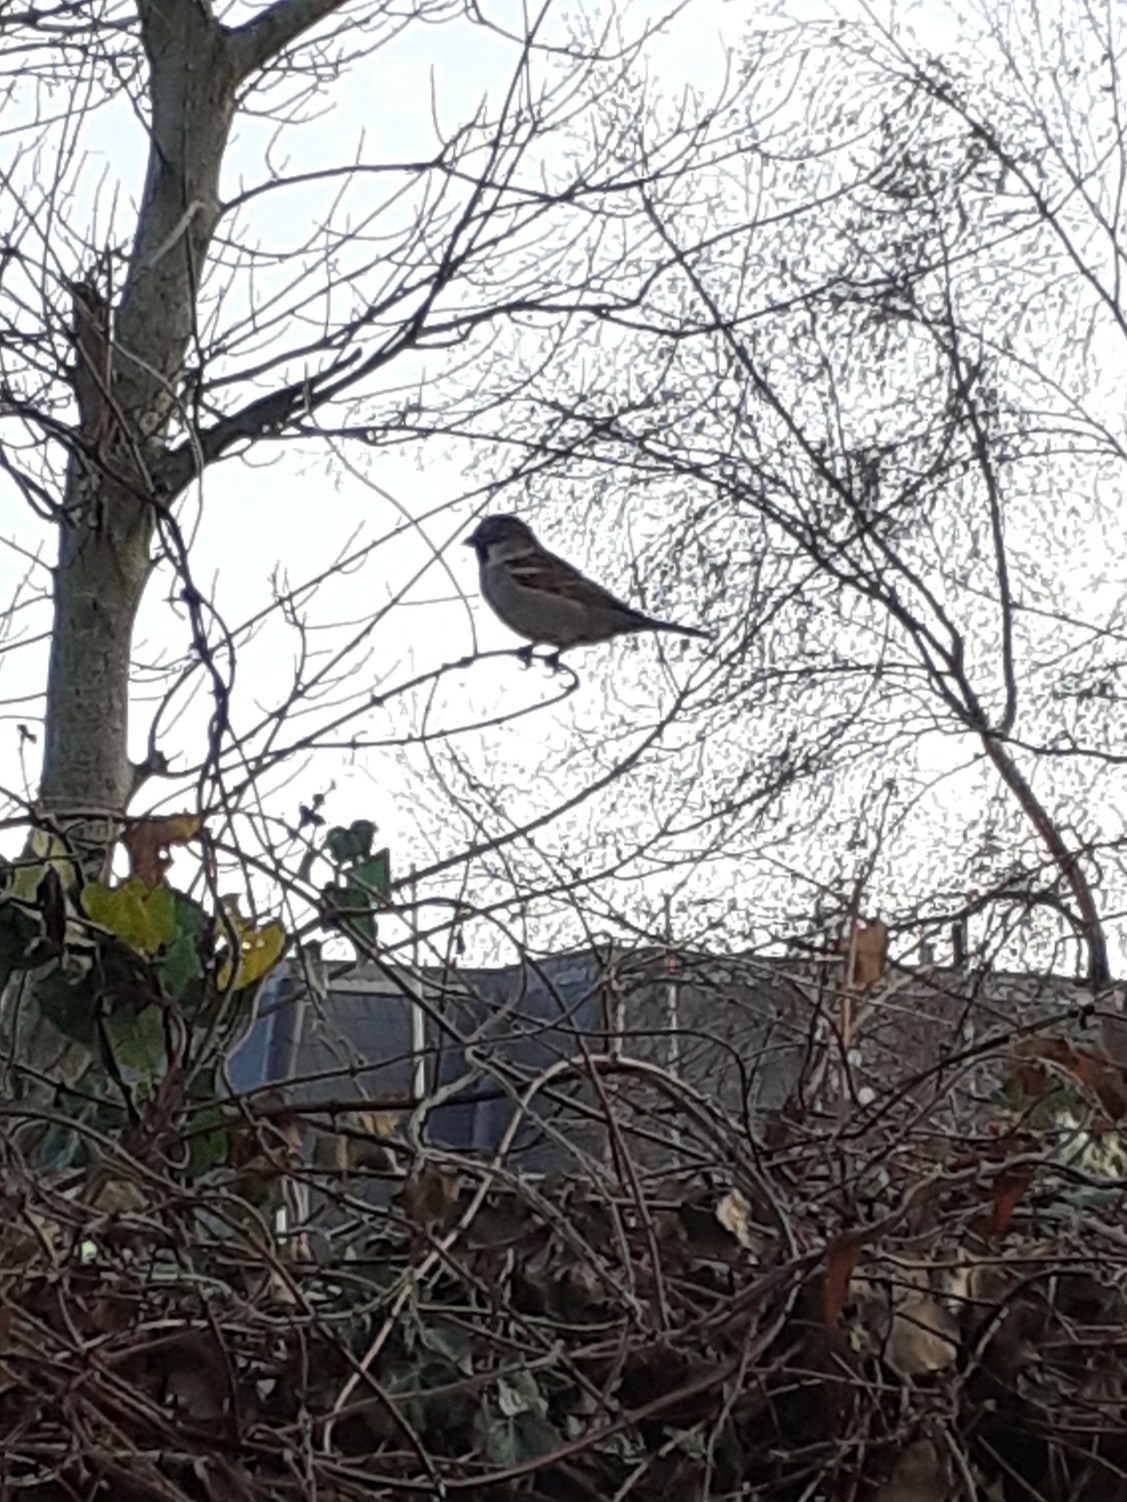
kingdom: Animalia
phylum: Chordata
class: Aves
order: Passeriformes
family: Passeridae
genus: Passer
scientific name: Passer domesticus
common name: House sparrow
